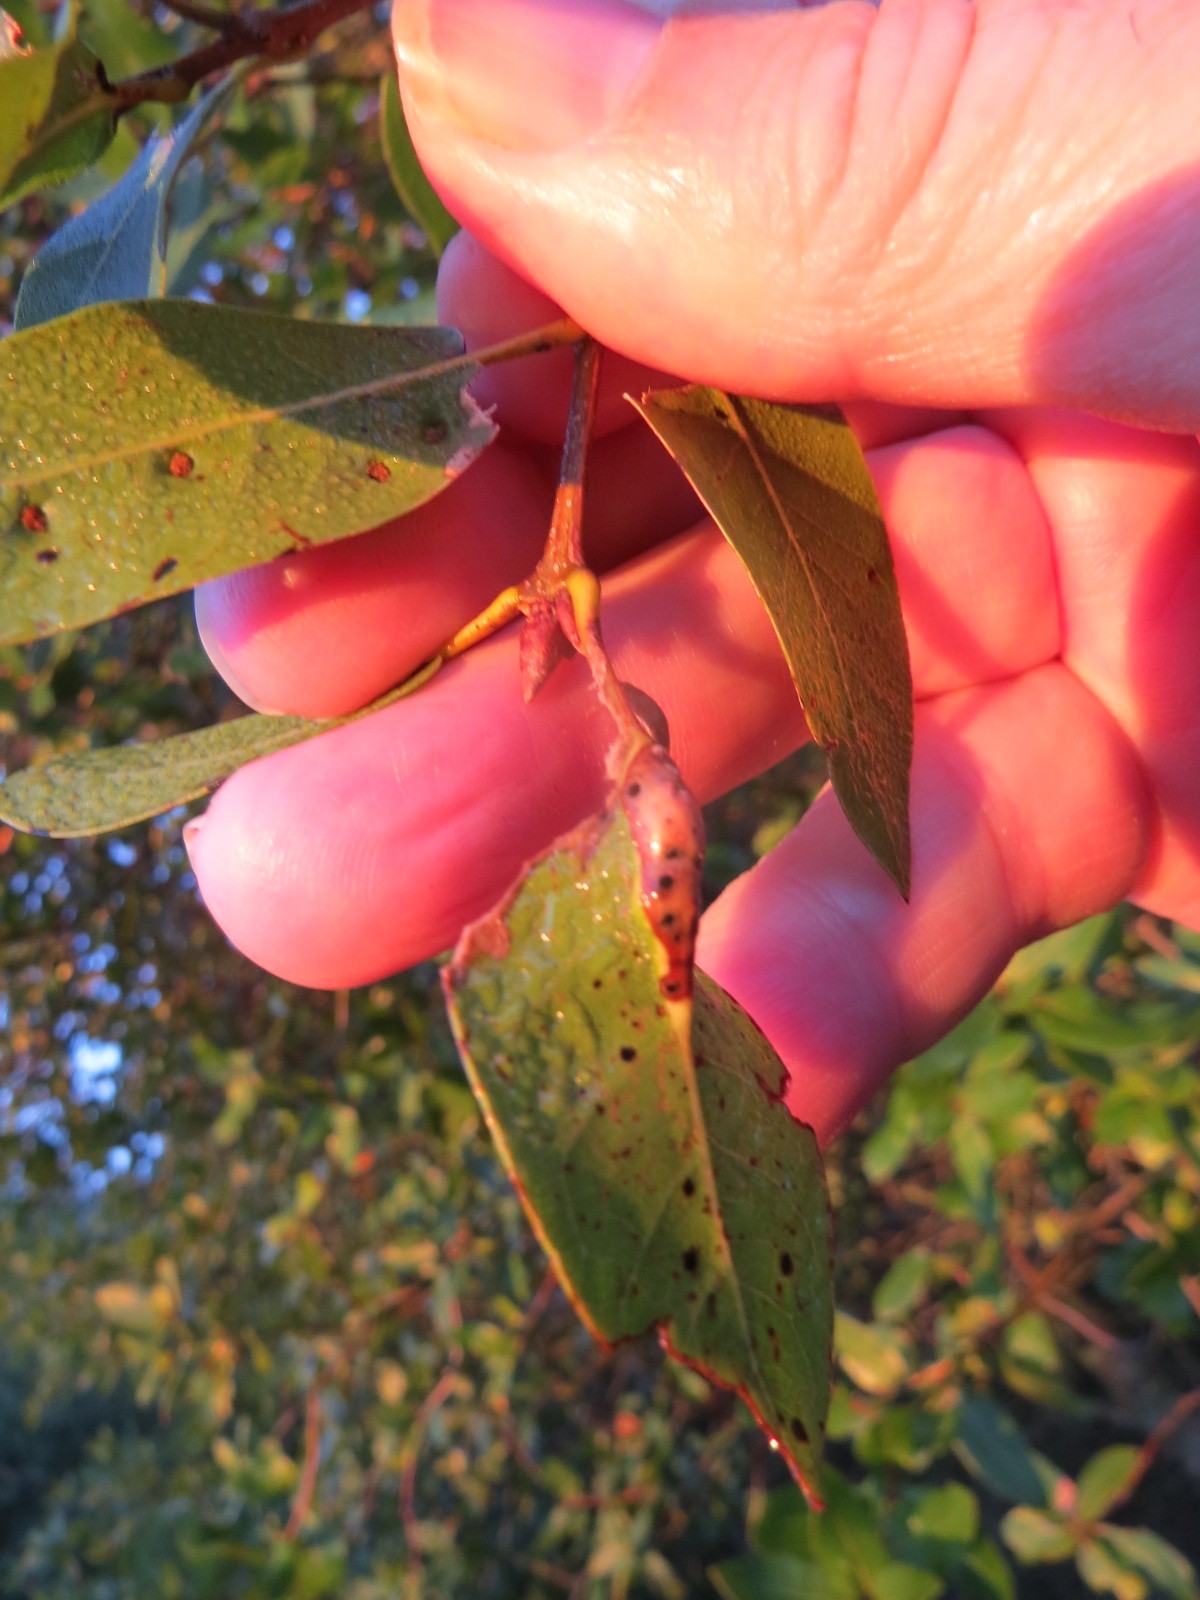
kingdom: Animalia
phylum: Arthropoda
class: Insecta
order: Hymenoptera
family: Cynipidae
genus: Melikaiella
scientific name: Melikaiella
